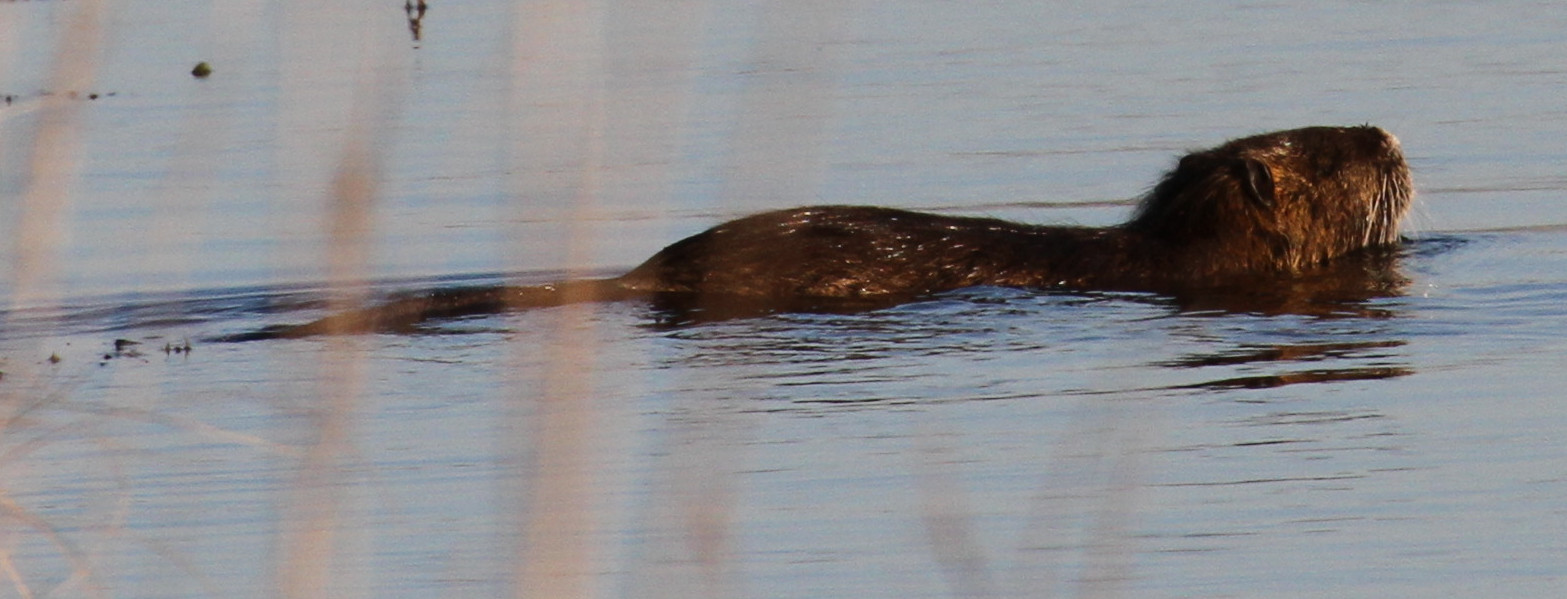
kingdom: Animalia
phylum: Chordata
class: Mammalia
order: Rodentia
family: Myocastoridae
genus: Myocastor
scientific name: Myocastor coypus
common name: Coypu
